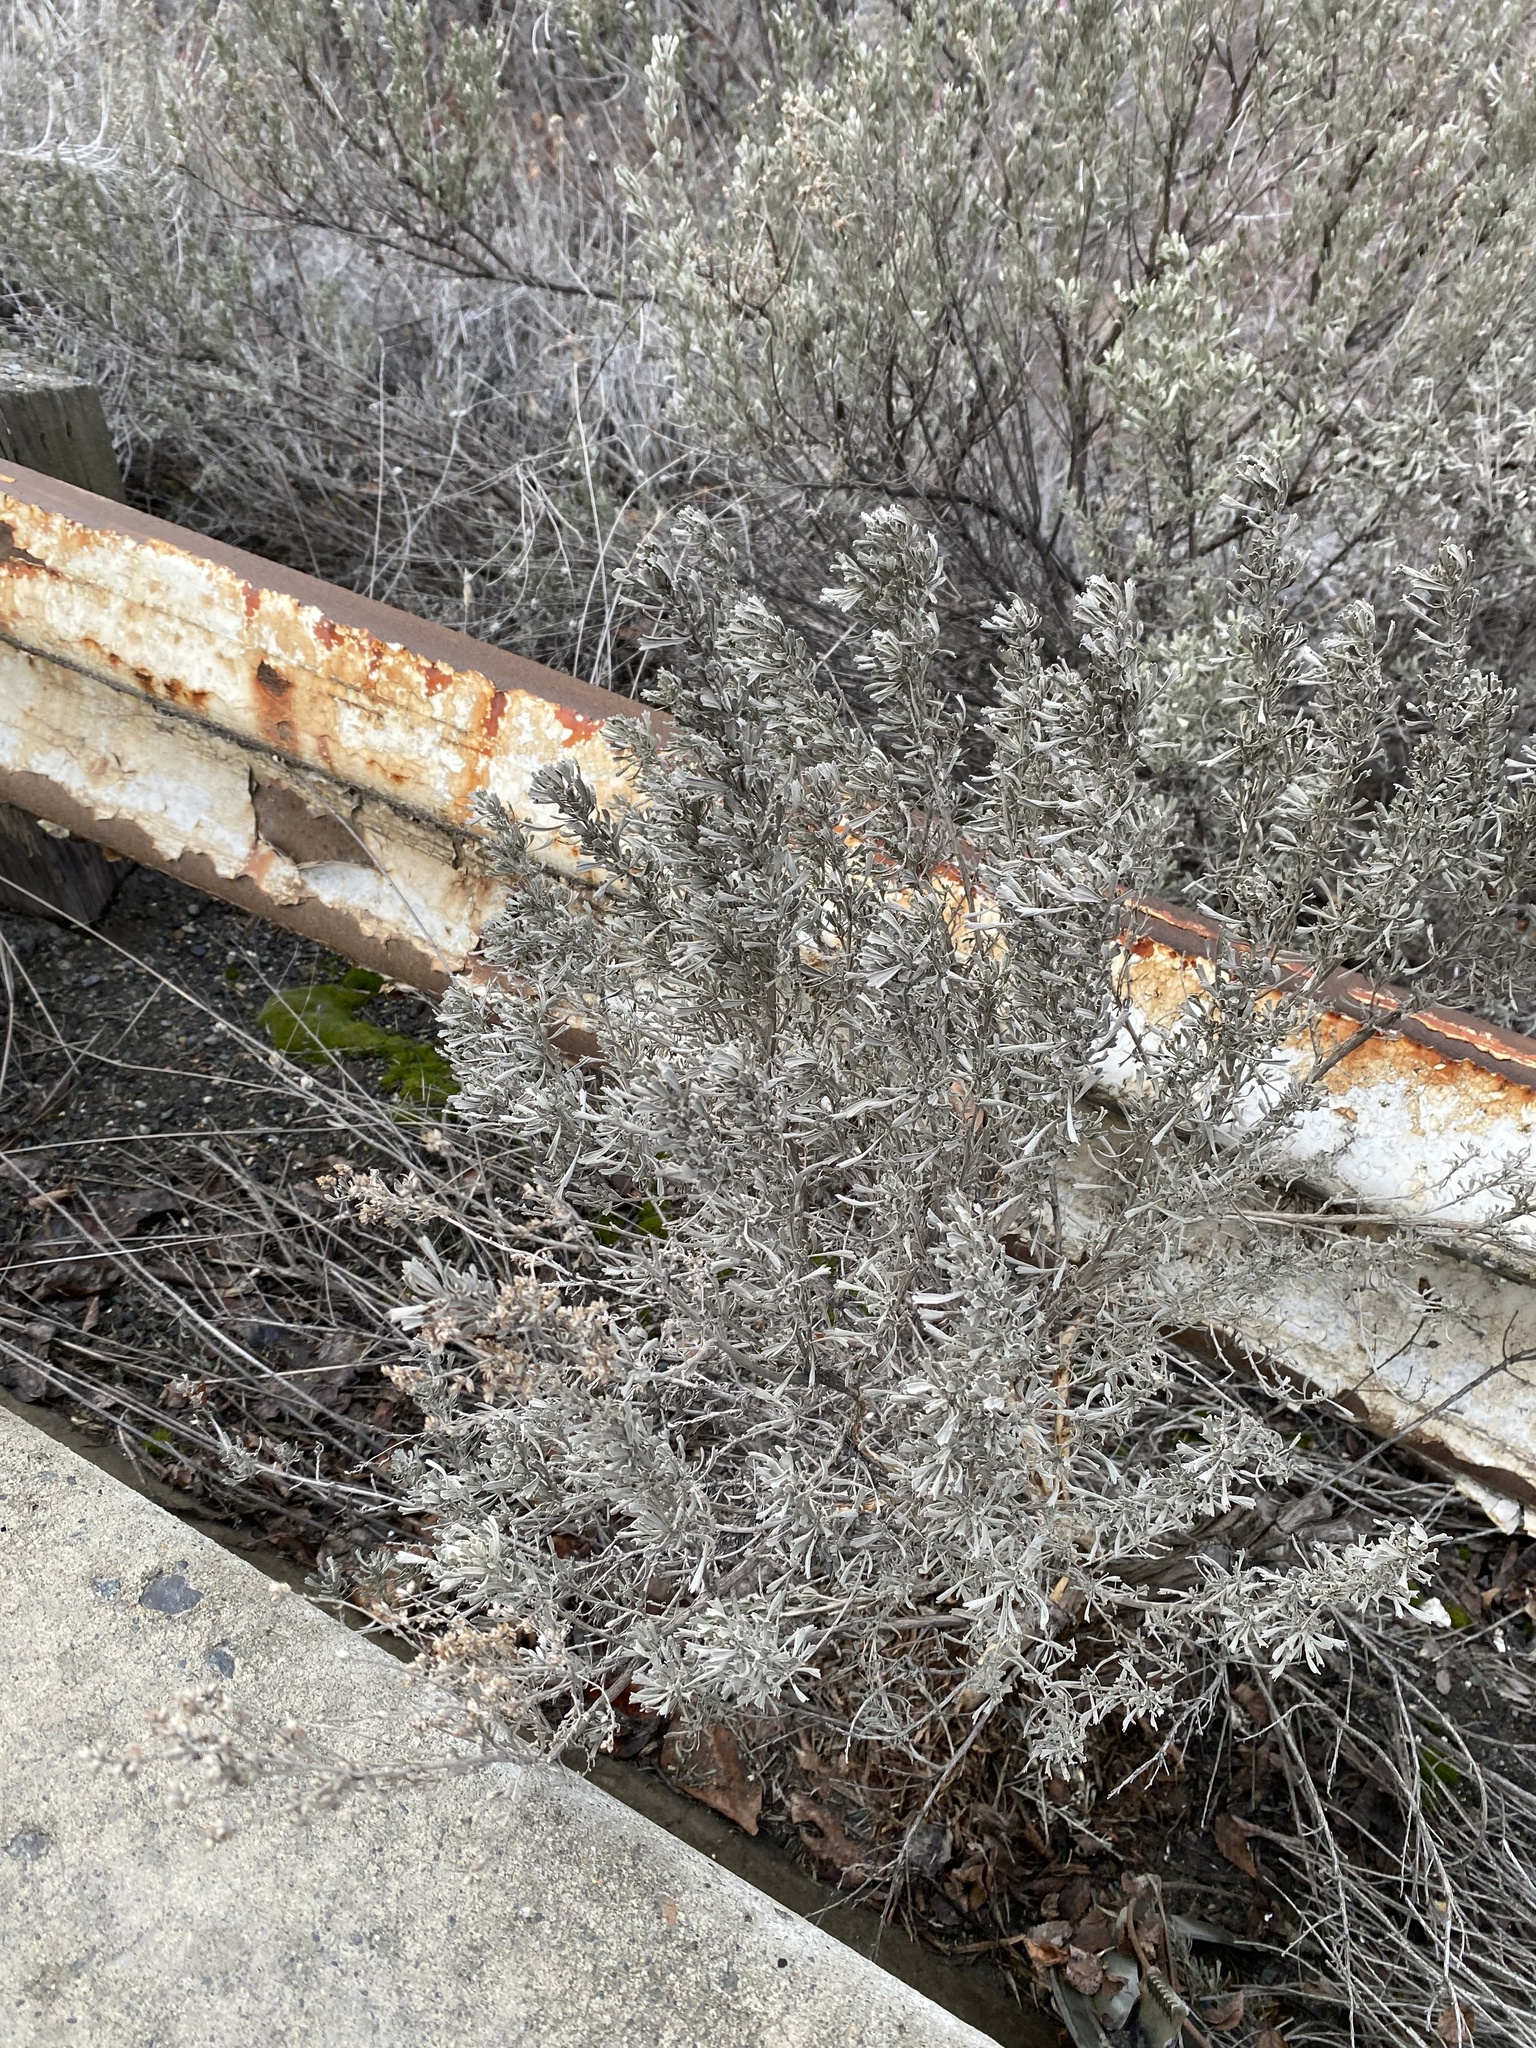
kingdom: Plantae
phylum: Tracheophyta
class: Magnoliopsida
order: Asterales
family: Asteraceae
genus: Artemisia
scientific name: Artemisia tridentata
